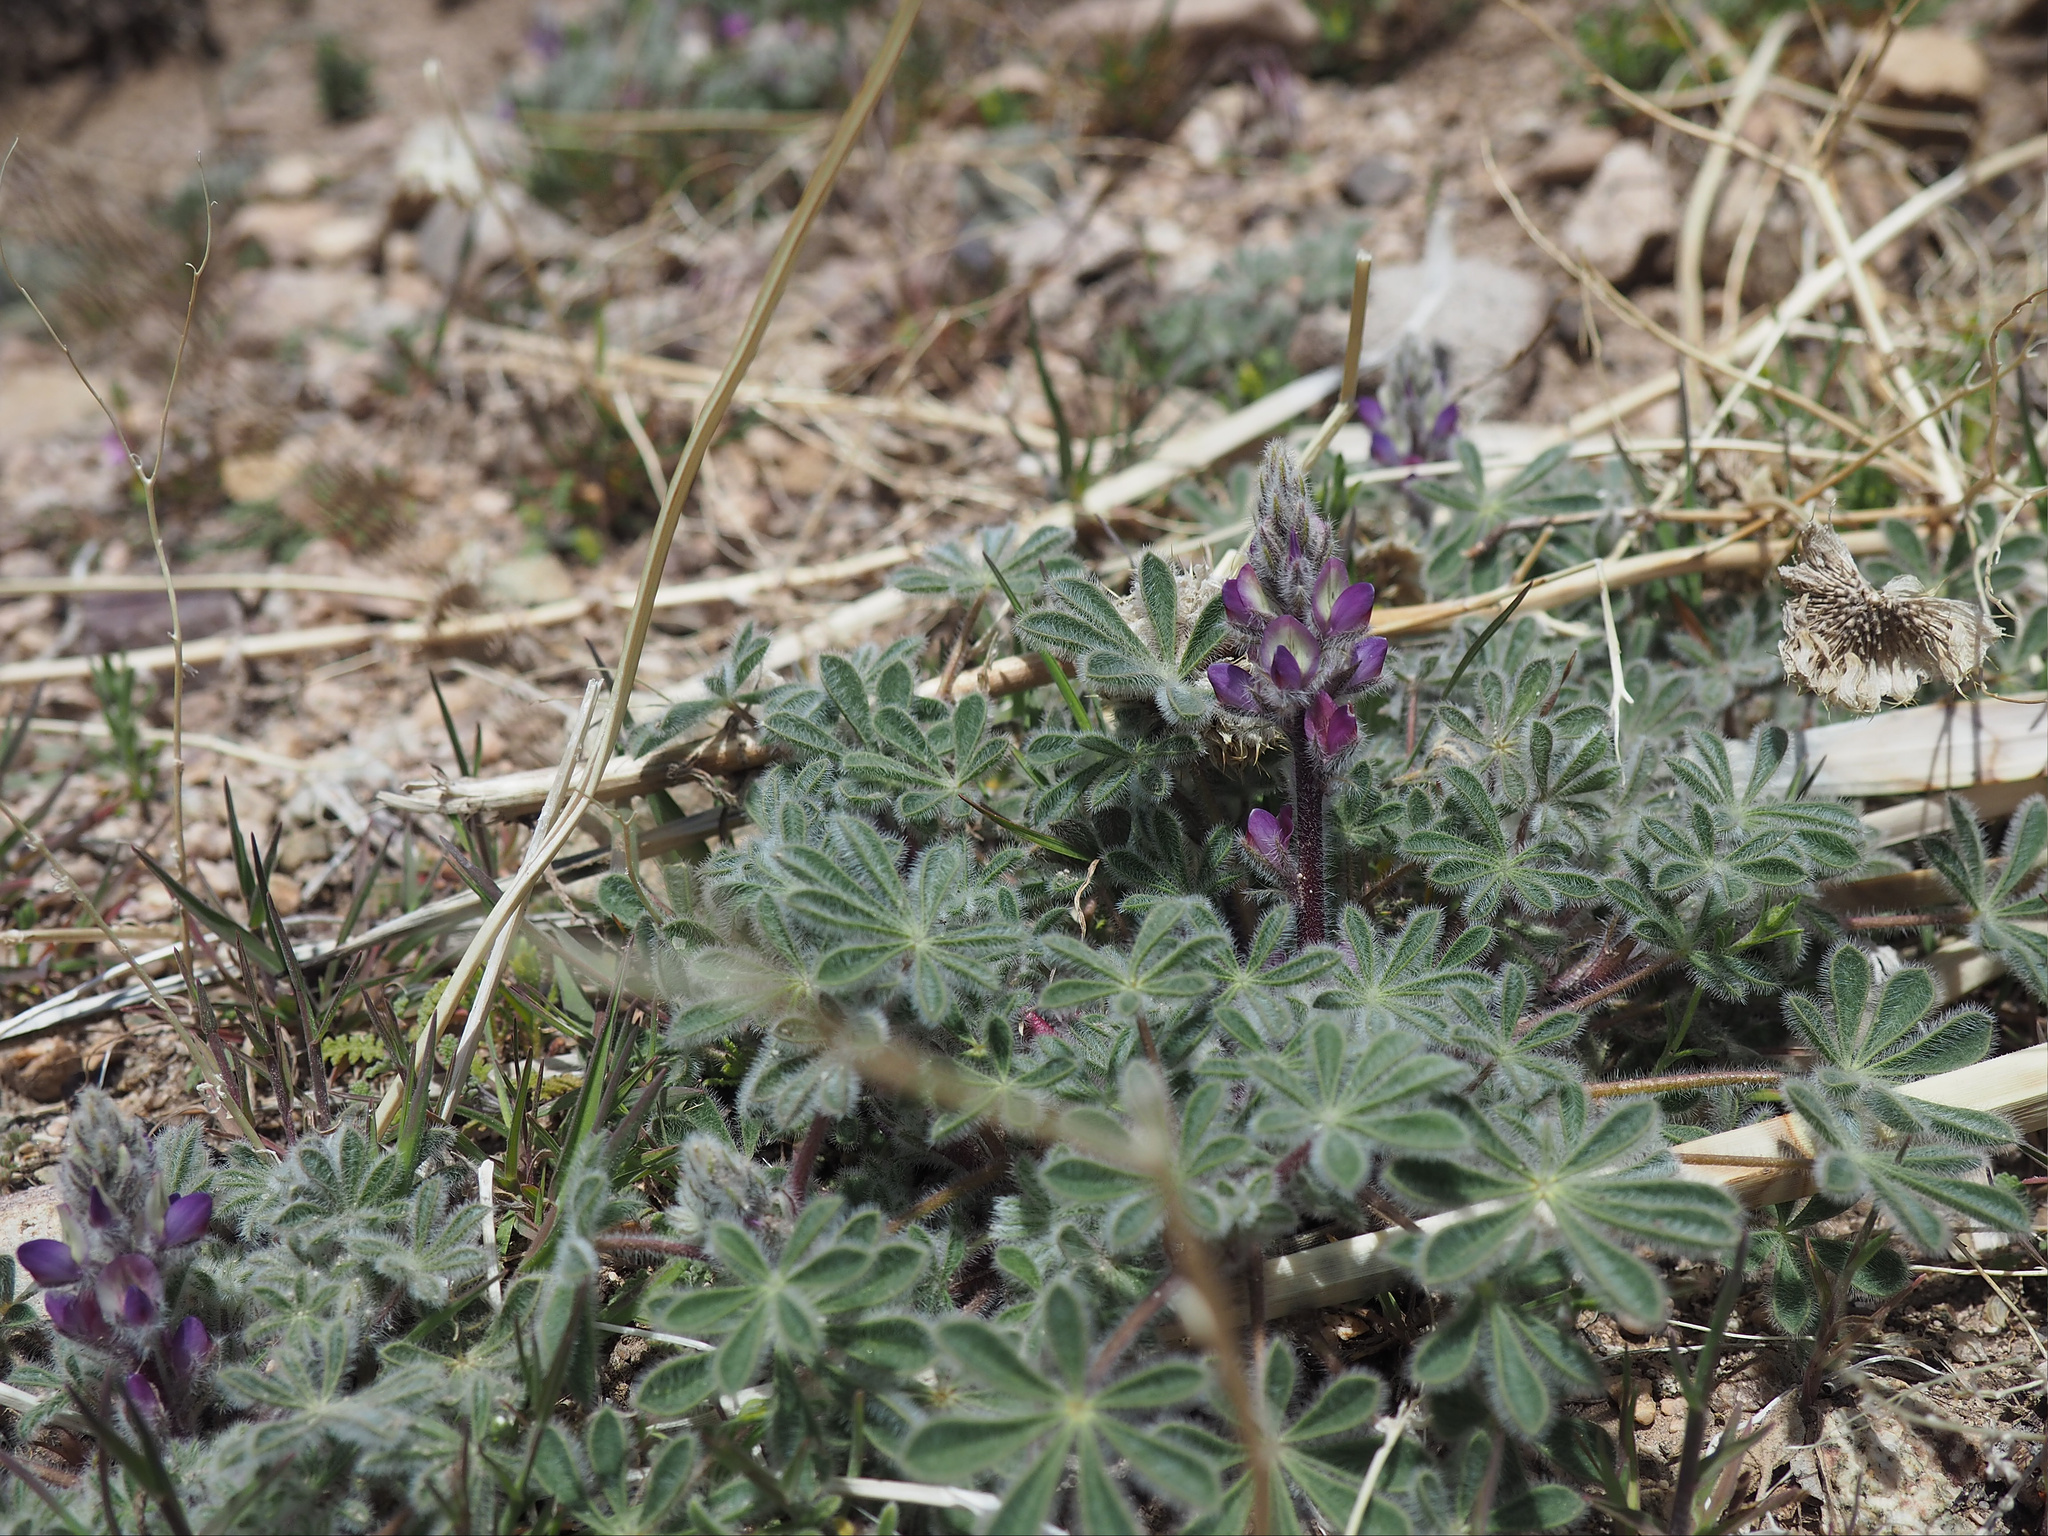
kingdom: Plantae
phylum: Tracheophyta
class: Magnoliopsida
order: Fabales
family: Fabaceae
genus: Lupinus
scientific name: Lupinus concinnus
